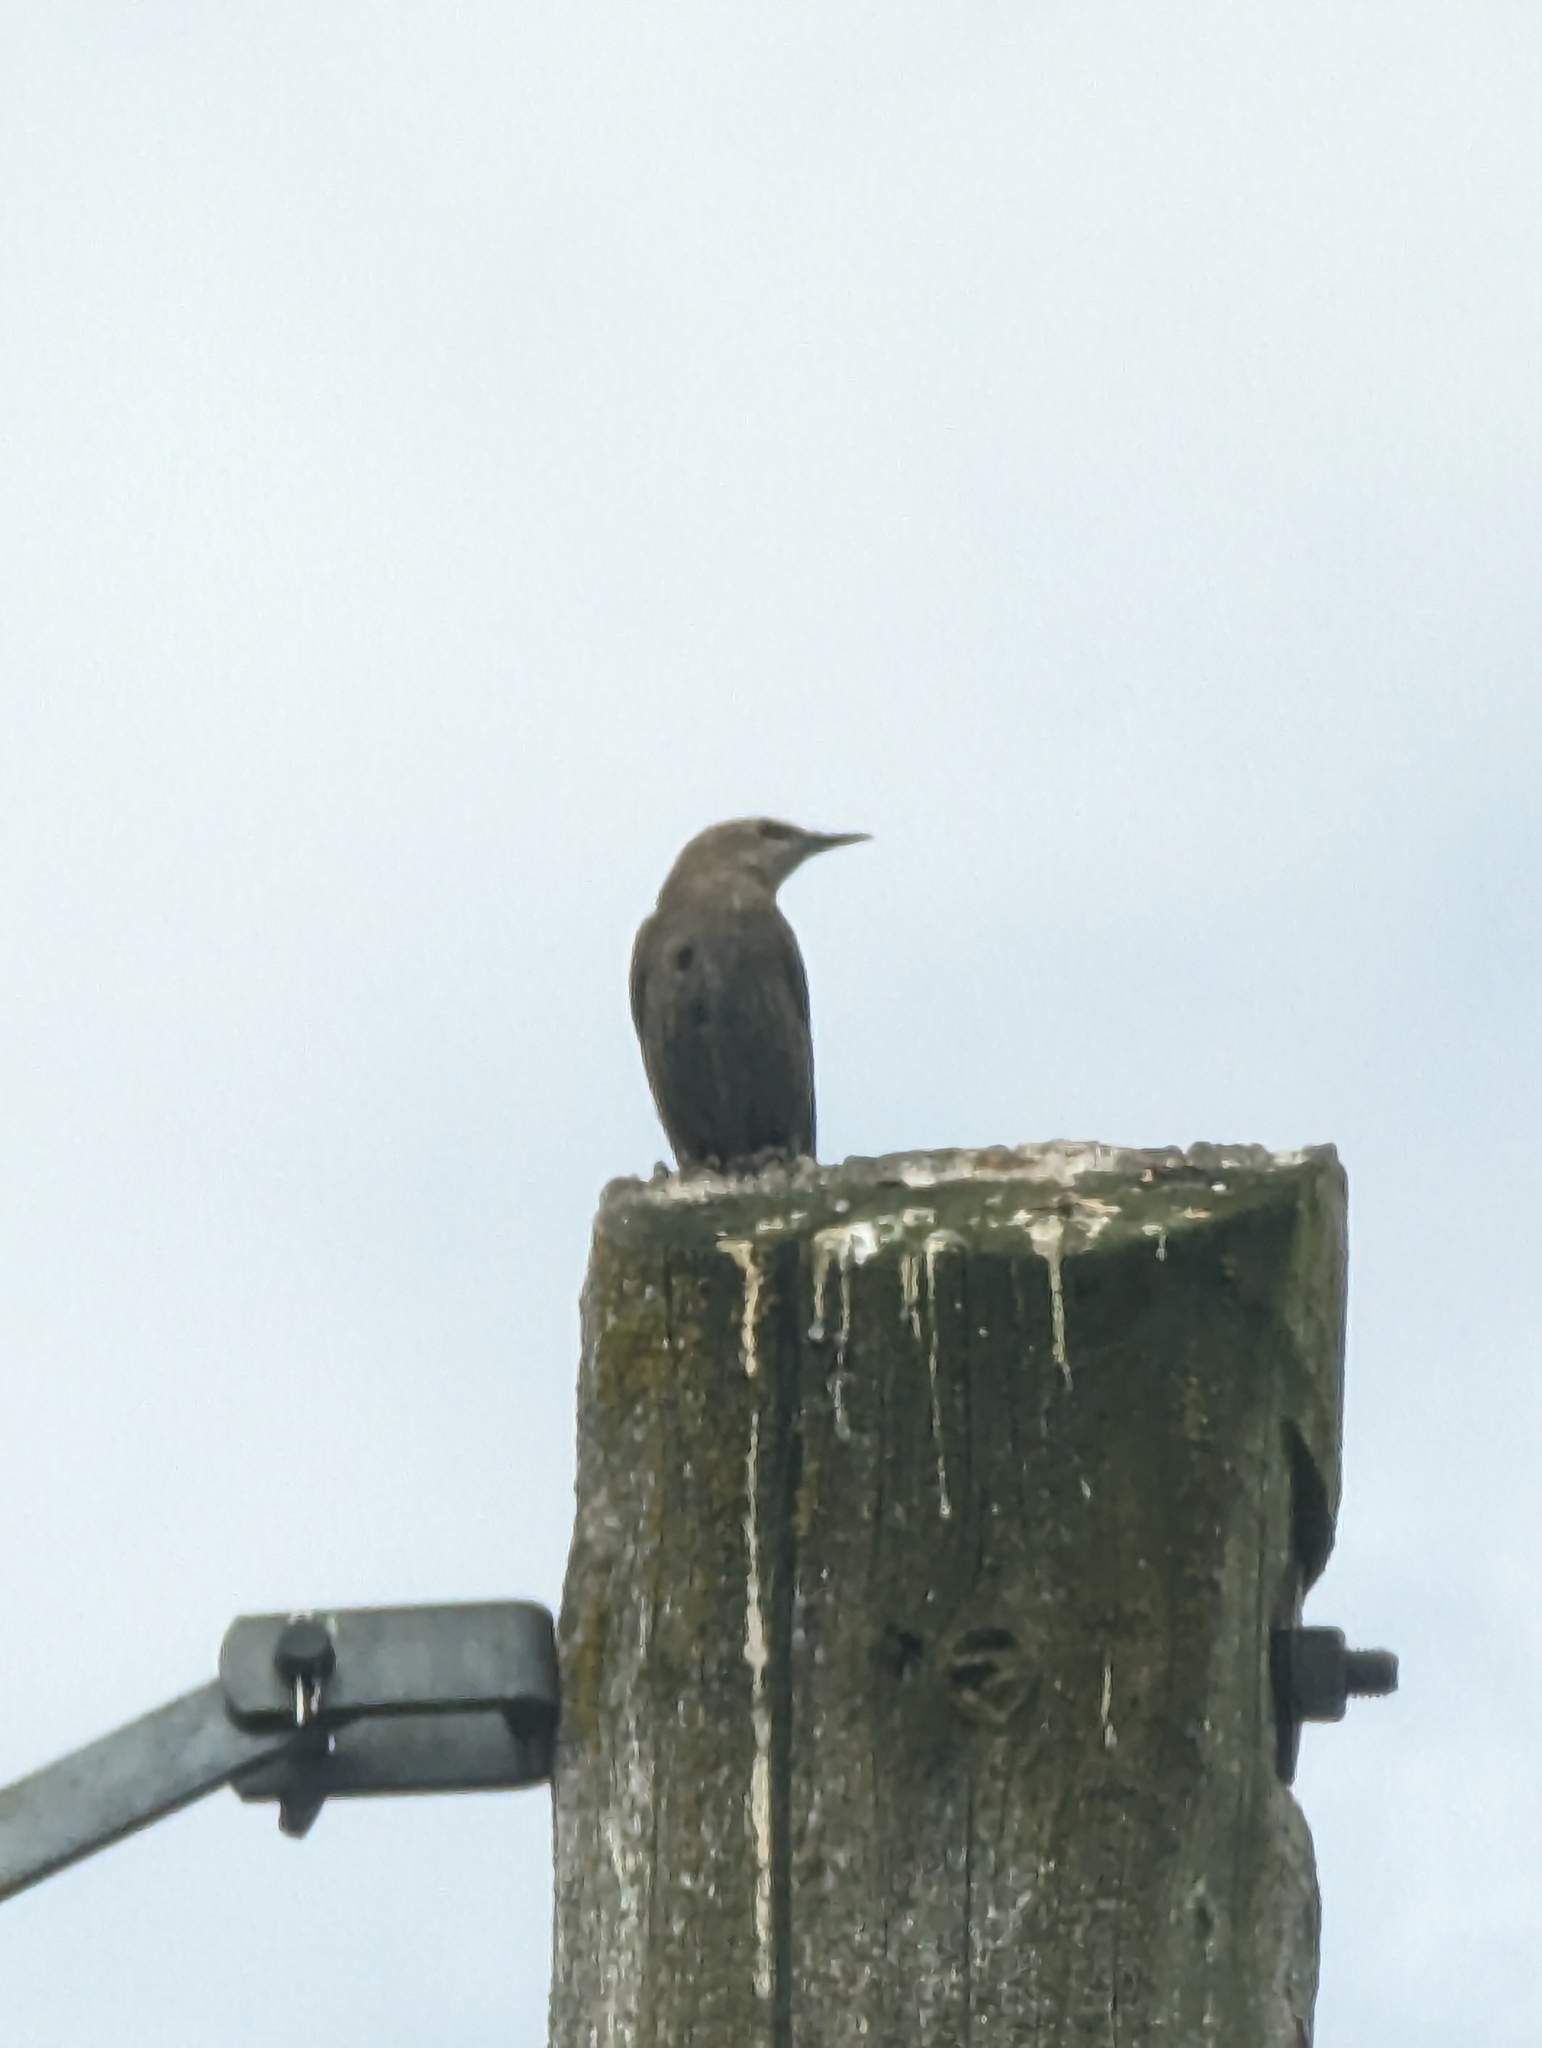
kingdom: Animalia
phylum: Chordata
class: Aves
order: Passeriformes
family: Sturnidae
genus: Sturnus
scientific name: Sturnus vulgaris
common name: Common starling
